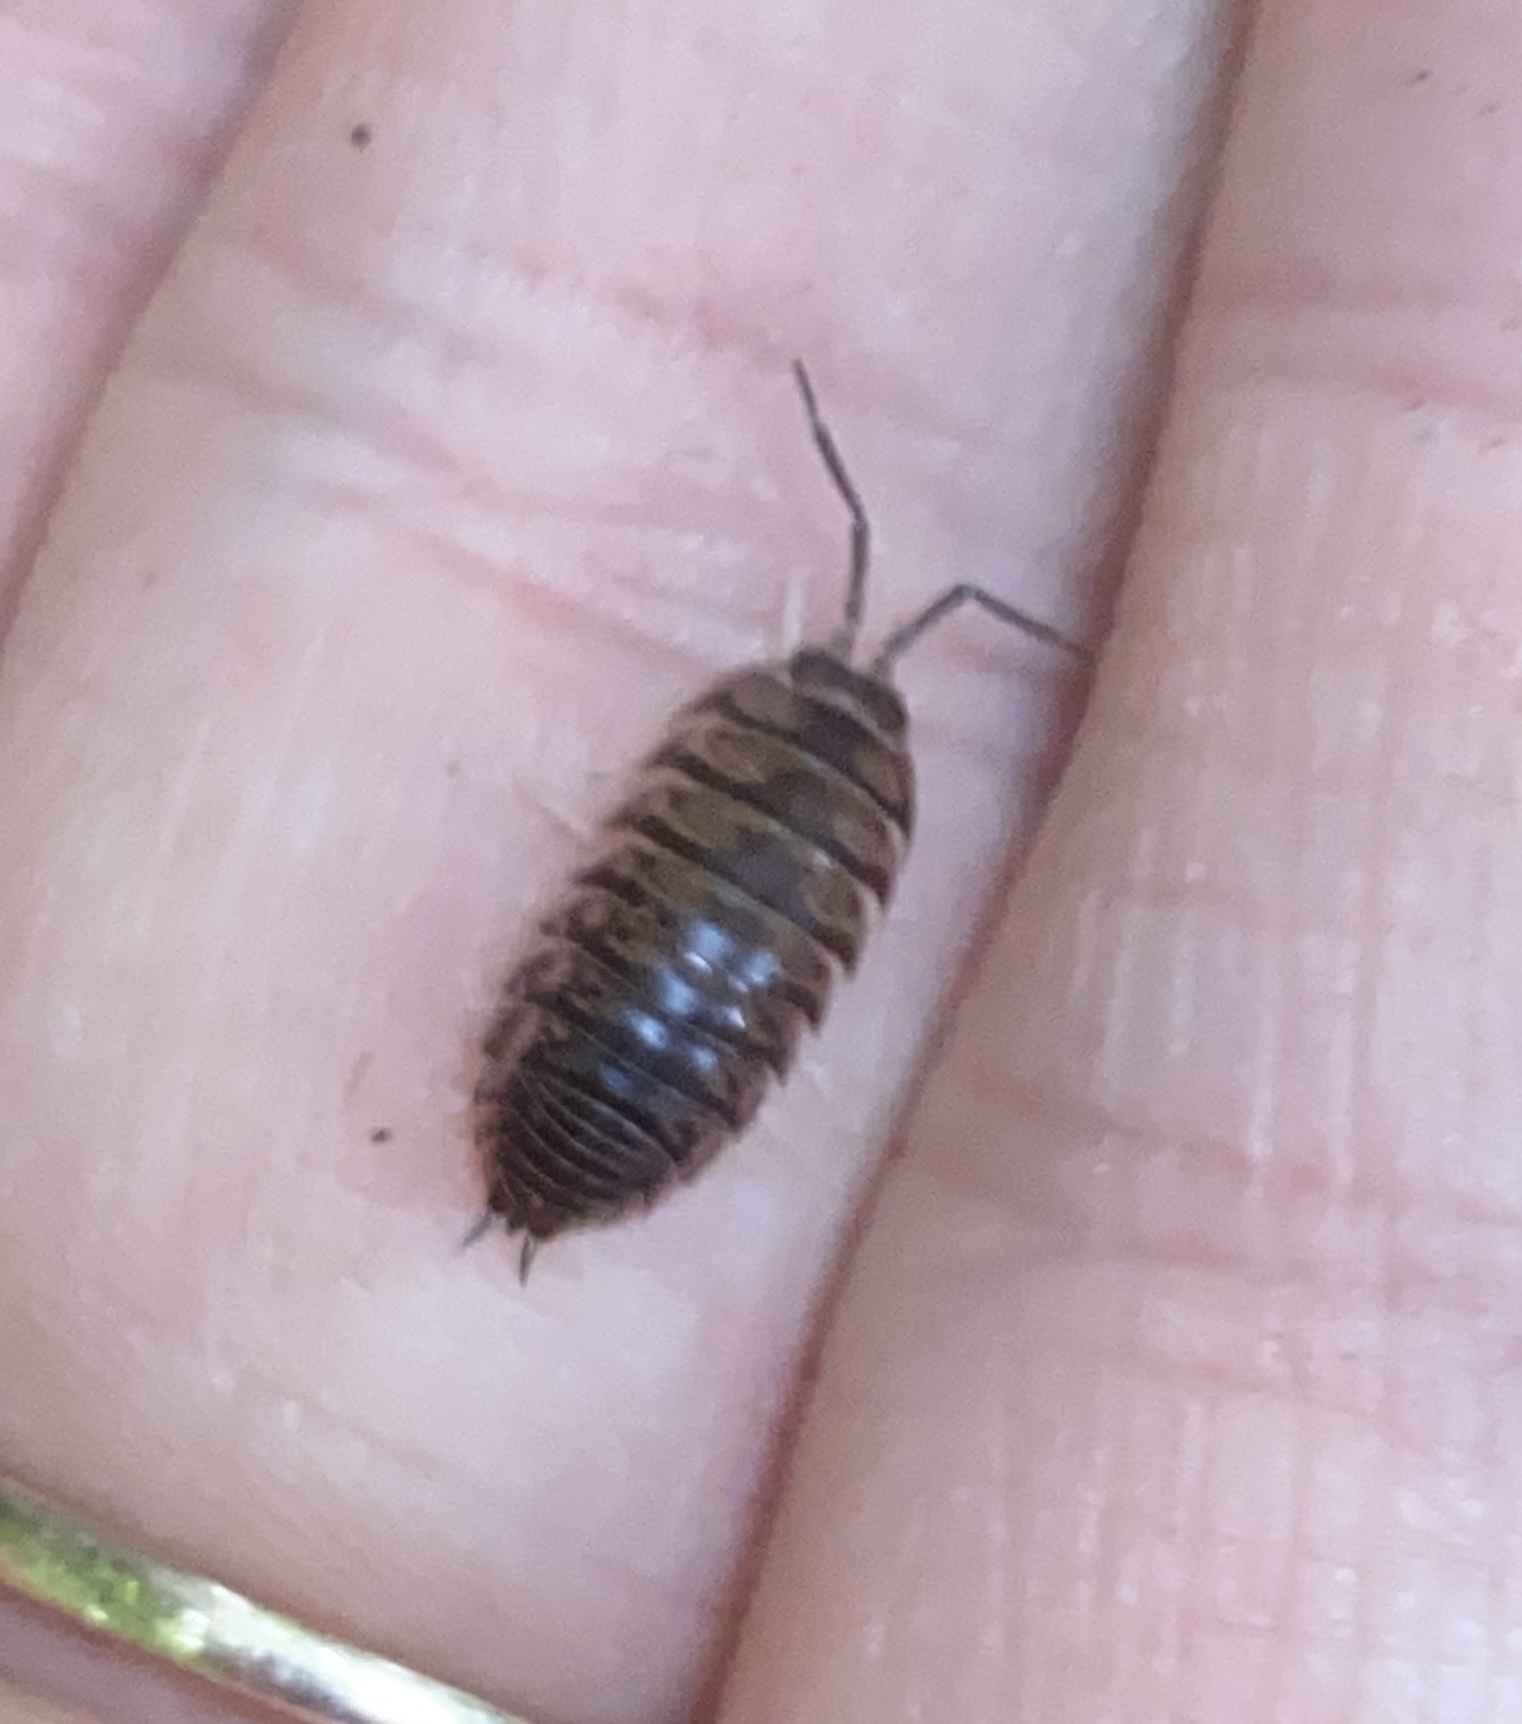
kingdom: Animalia
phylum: Arthropoda
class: Malacostraca
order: Isopoda
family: Cylisticidae
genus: Cylisticus
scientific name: Cylisticus convexus
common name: Curly woodlouse
